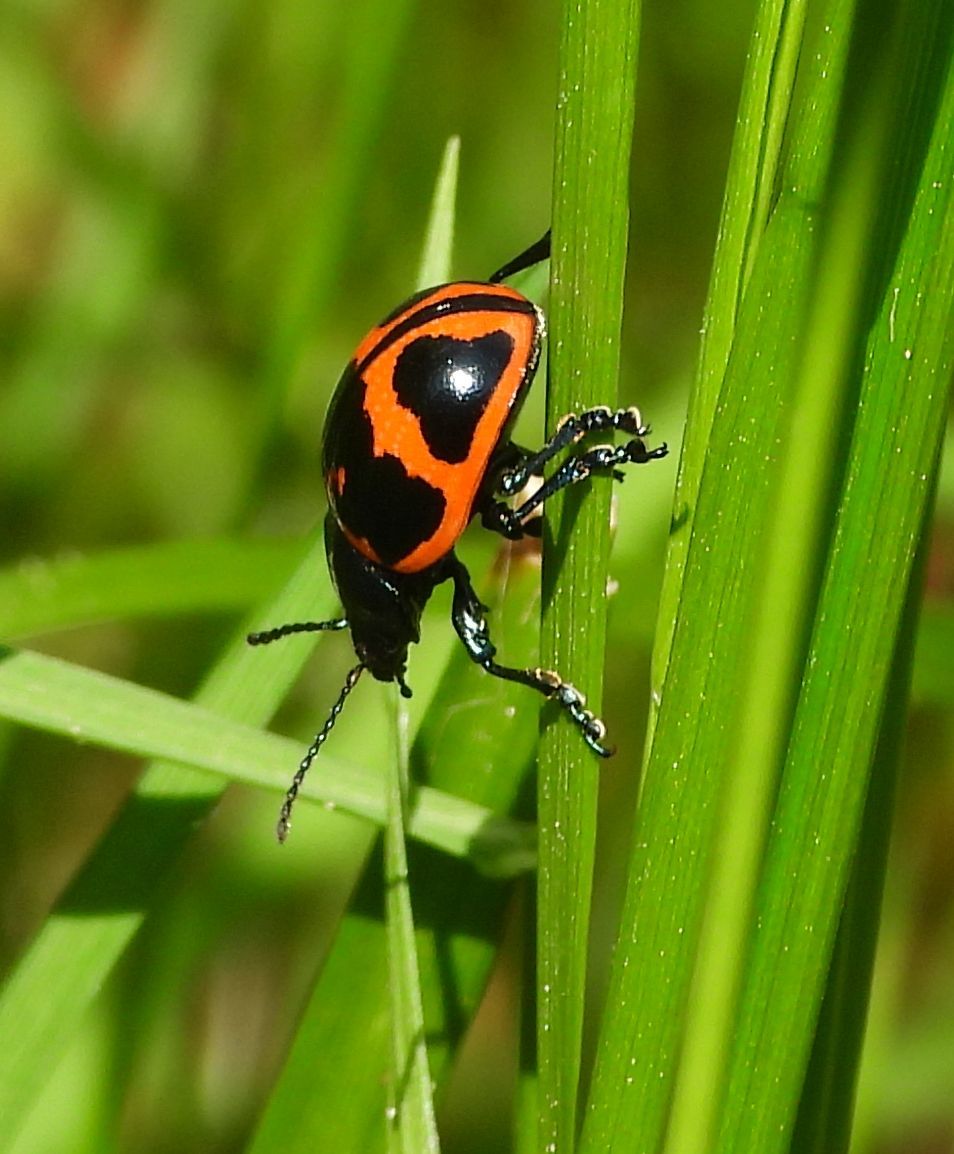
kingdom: Animalia
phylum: Arthropoda
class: Insecta
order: Coleoptera
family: Chrysomelidae
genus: Labidomera
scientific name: Labidomera clivicollis
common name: Swamp milkweed leaf beetle
